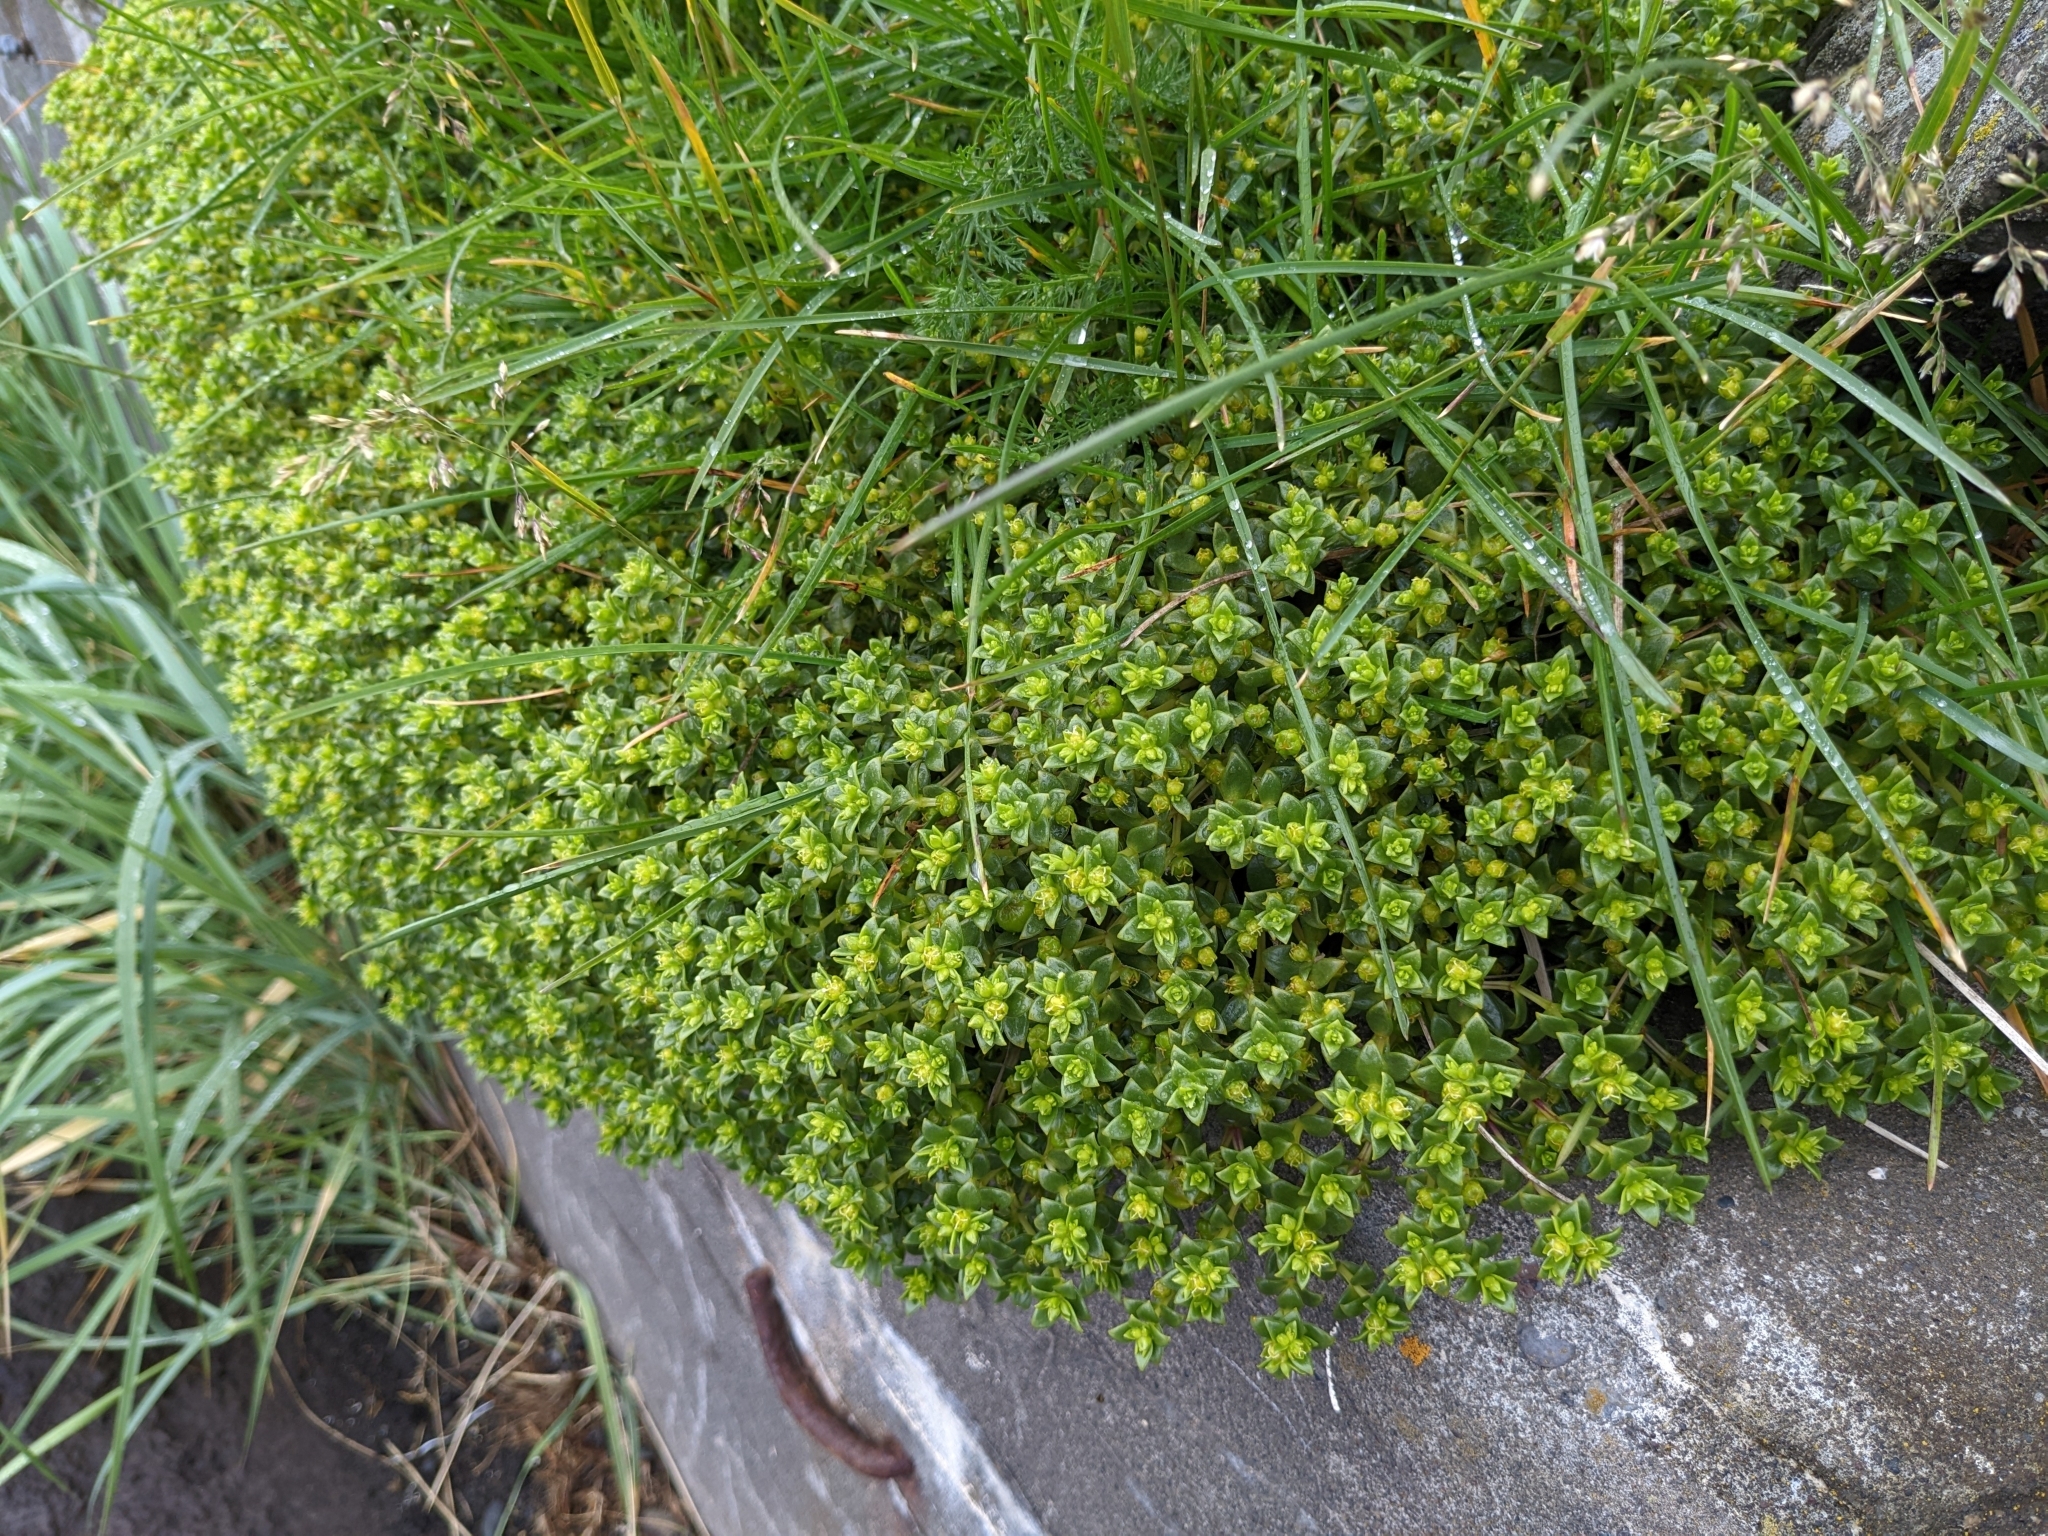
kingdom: Plantae
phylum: Tracheophyta
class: Magnoliopsida
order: Caryophyllales
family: Caryophyllaceae
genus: Honckenya
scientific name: Honckenya peploides
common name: Sea sandwort
